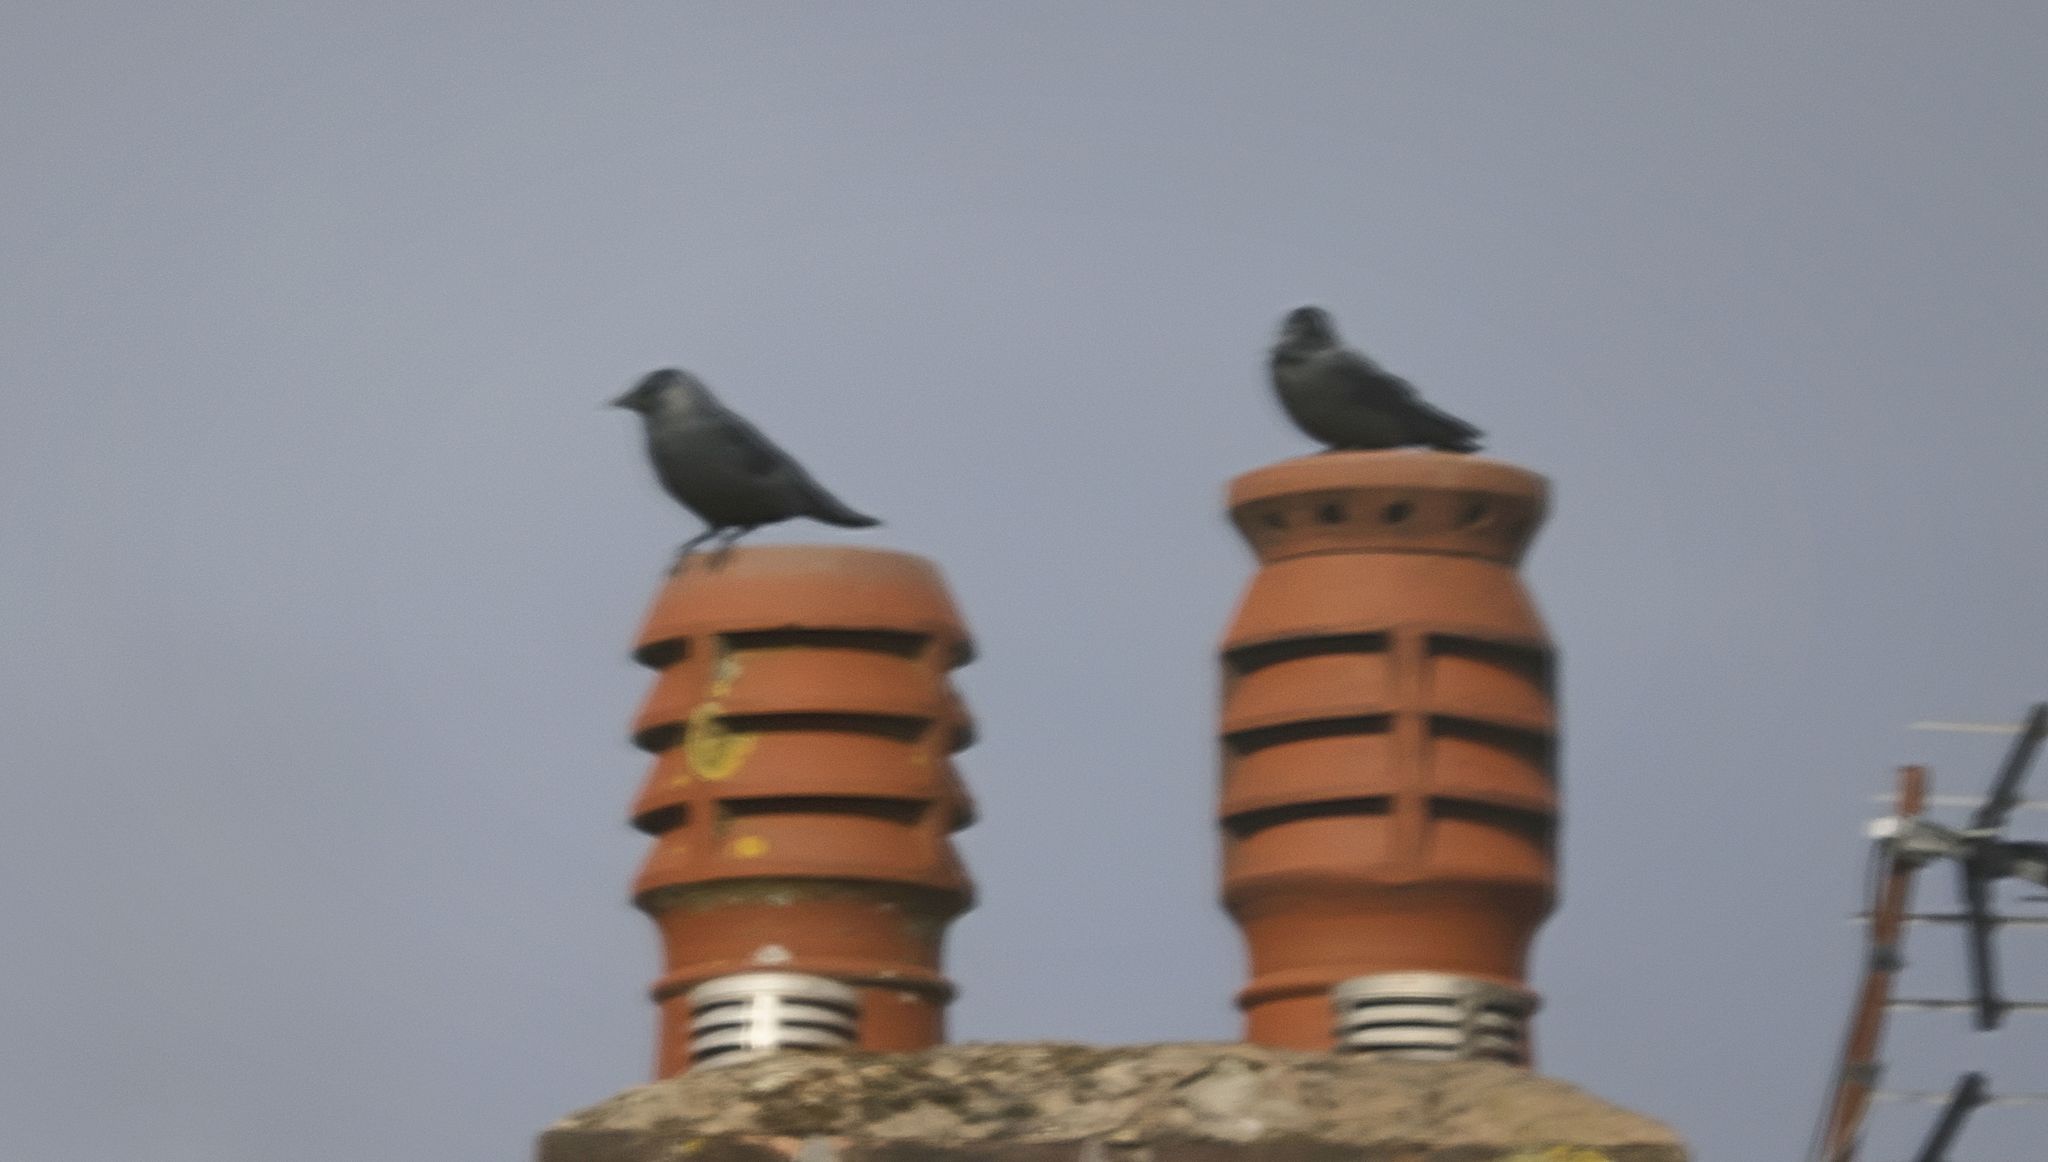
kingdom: Animalia
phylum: Chordata
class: Aves
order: Passeriformes
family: Corvidae
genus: Coloeus
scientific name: Coloeus monedula
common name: Western jackdaw
